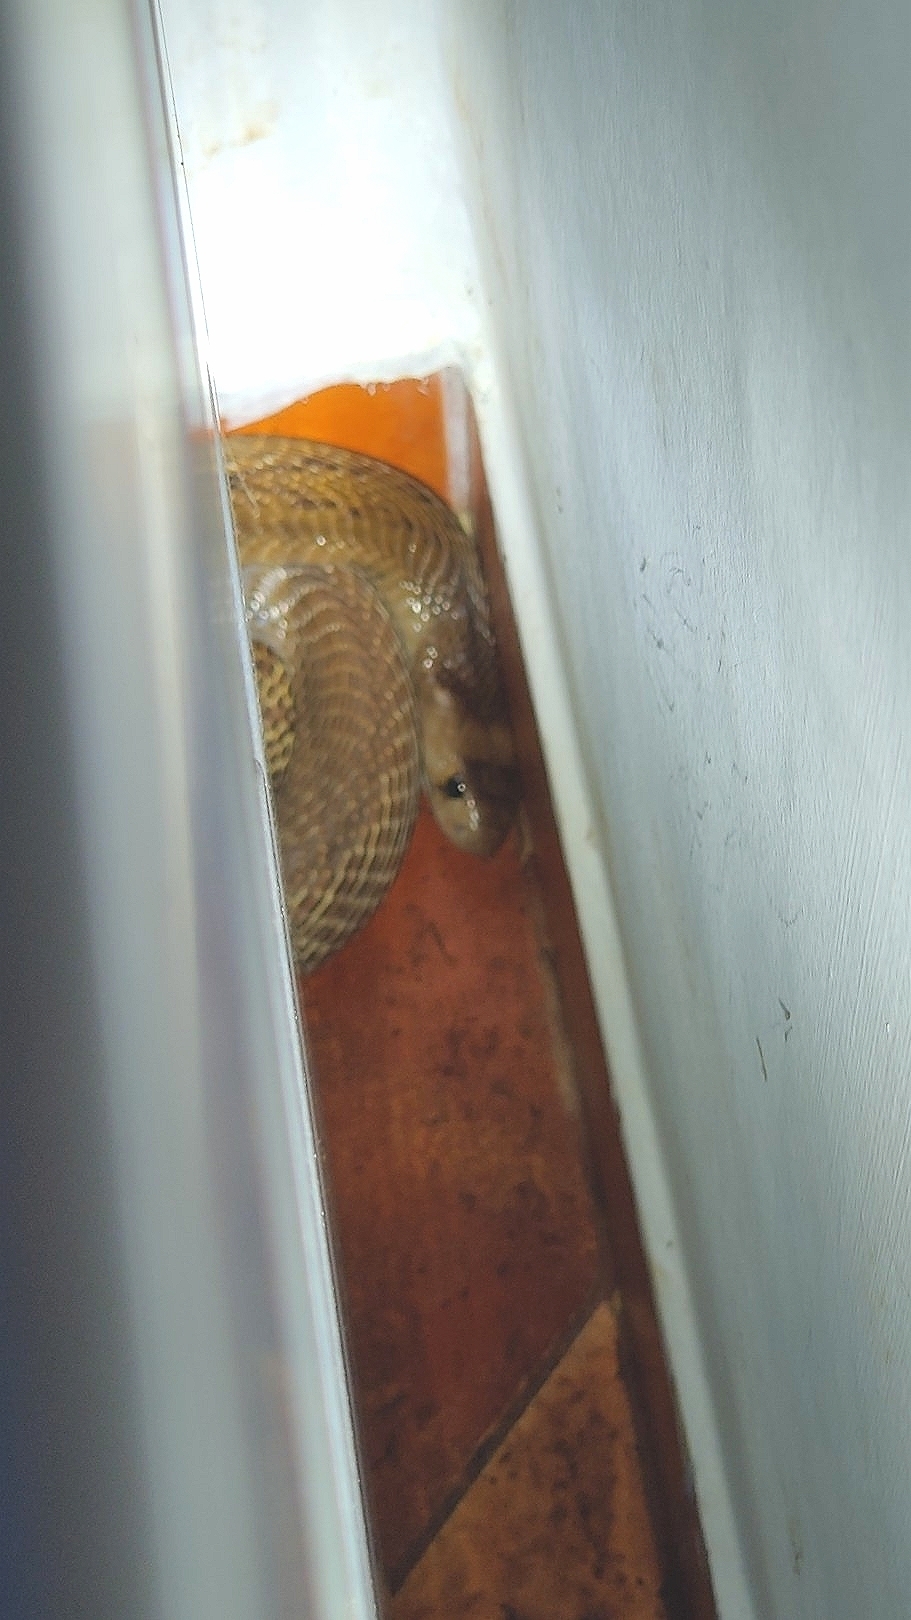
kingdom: Animalia
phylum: Chordata
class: Squamata
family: Elapidae
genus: Naja
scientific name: Naja naja
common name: Indian cobra
